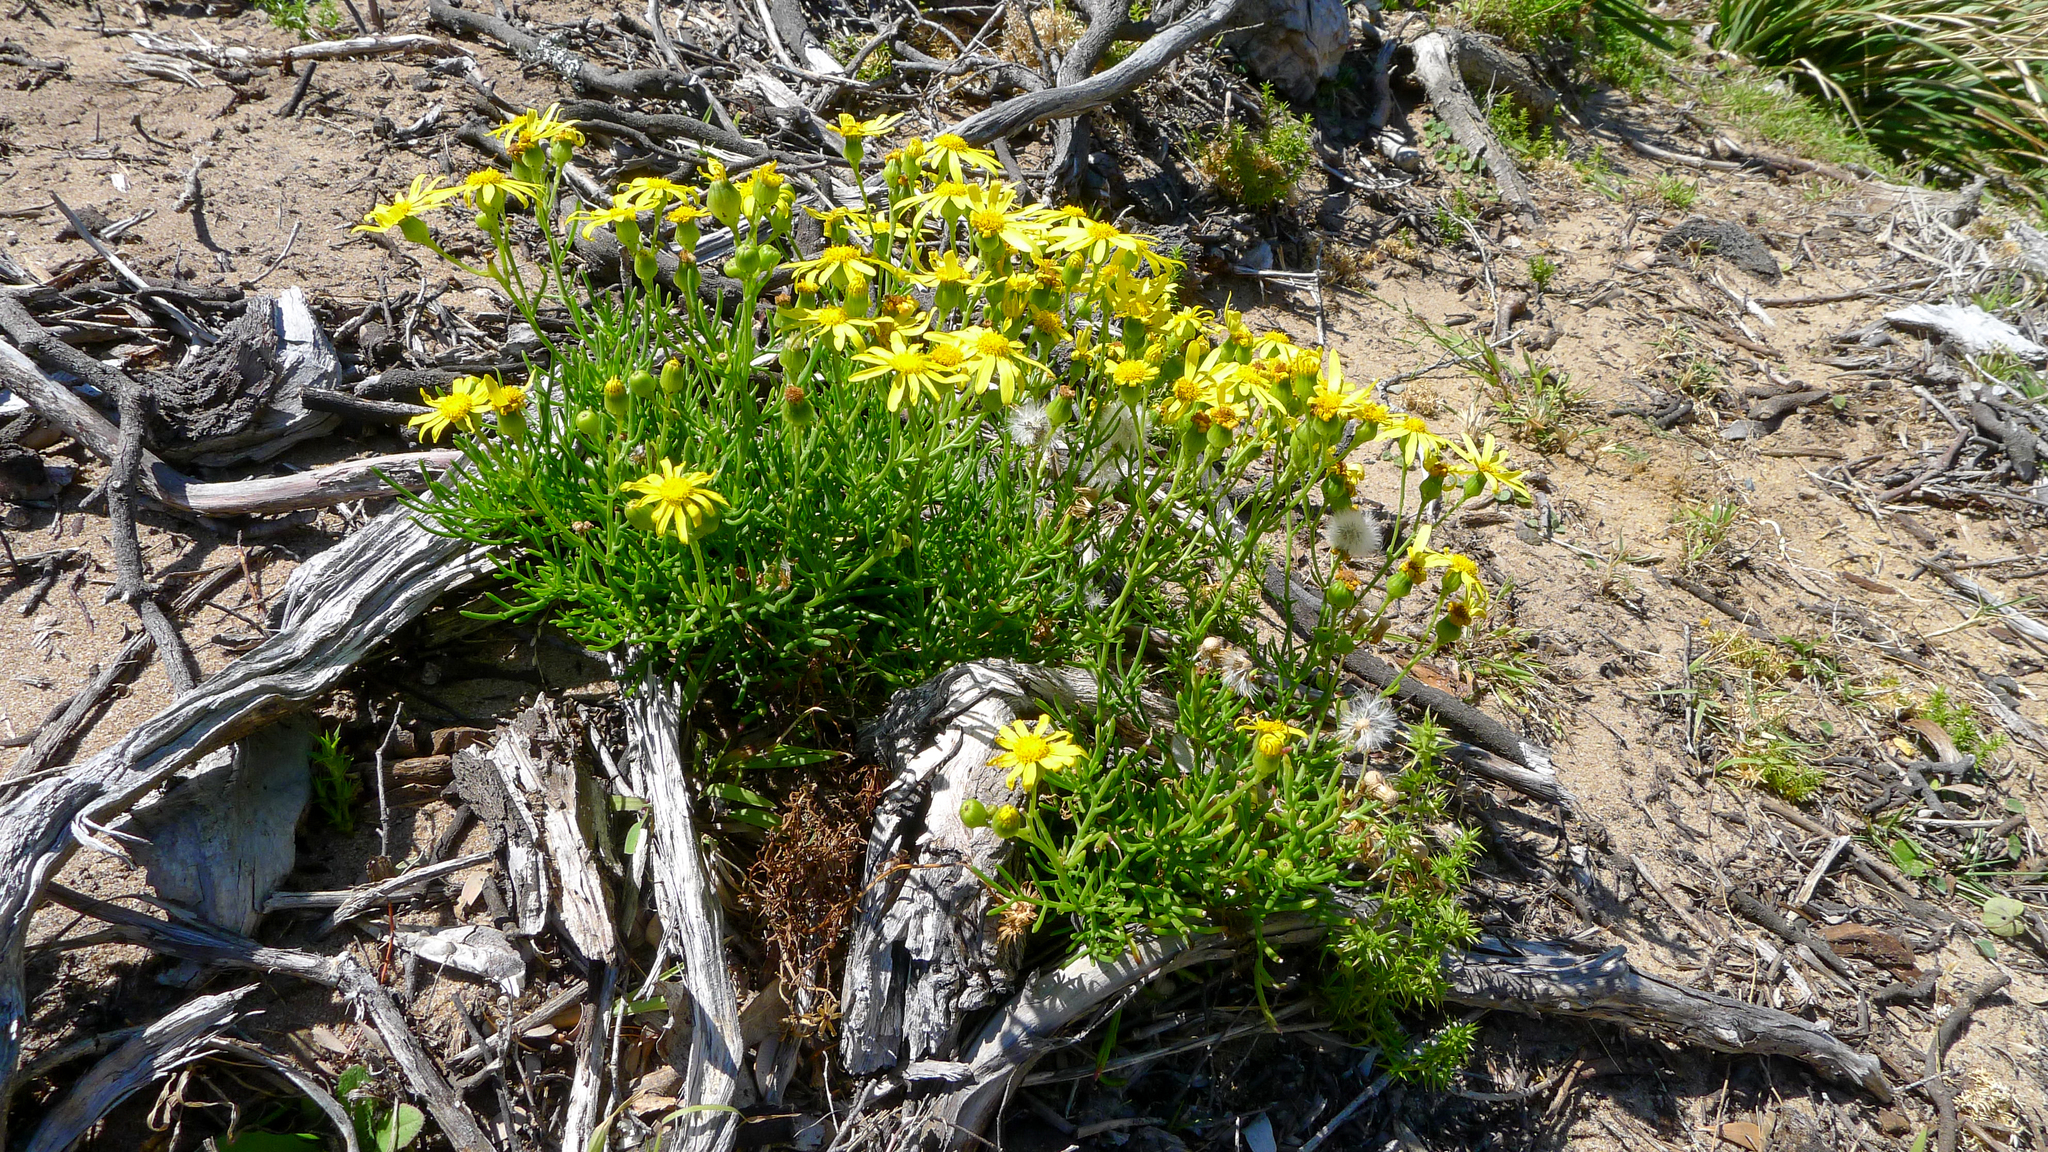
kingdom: Plantae
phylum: Tracheophyta
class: Magnoliopsida
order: Asterales
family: Asteraceae
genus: Senecio
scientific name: Senecio pinnatifolius
